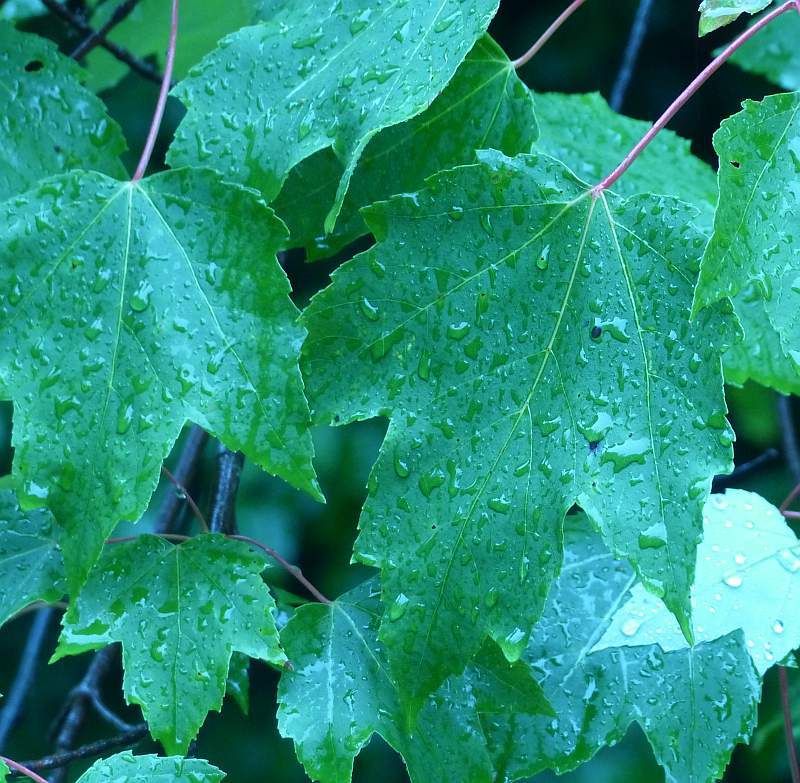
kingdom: Plantae
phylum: Tracheophyta
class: Magnoliopsida
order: Sapindales
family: Sapindaceae
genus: Acer
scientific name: Acer rubrum
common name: Red maple
